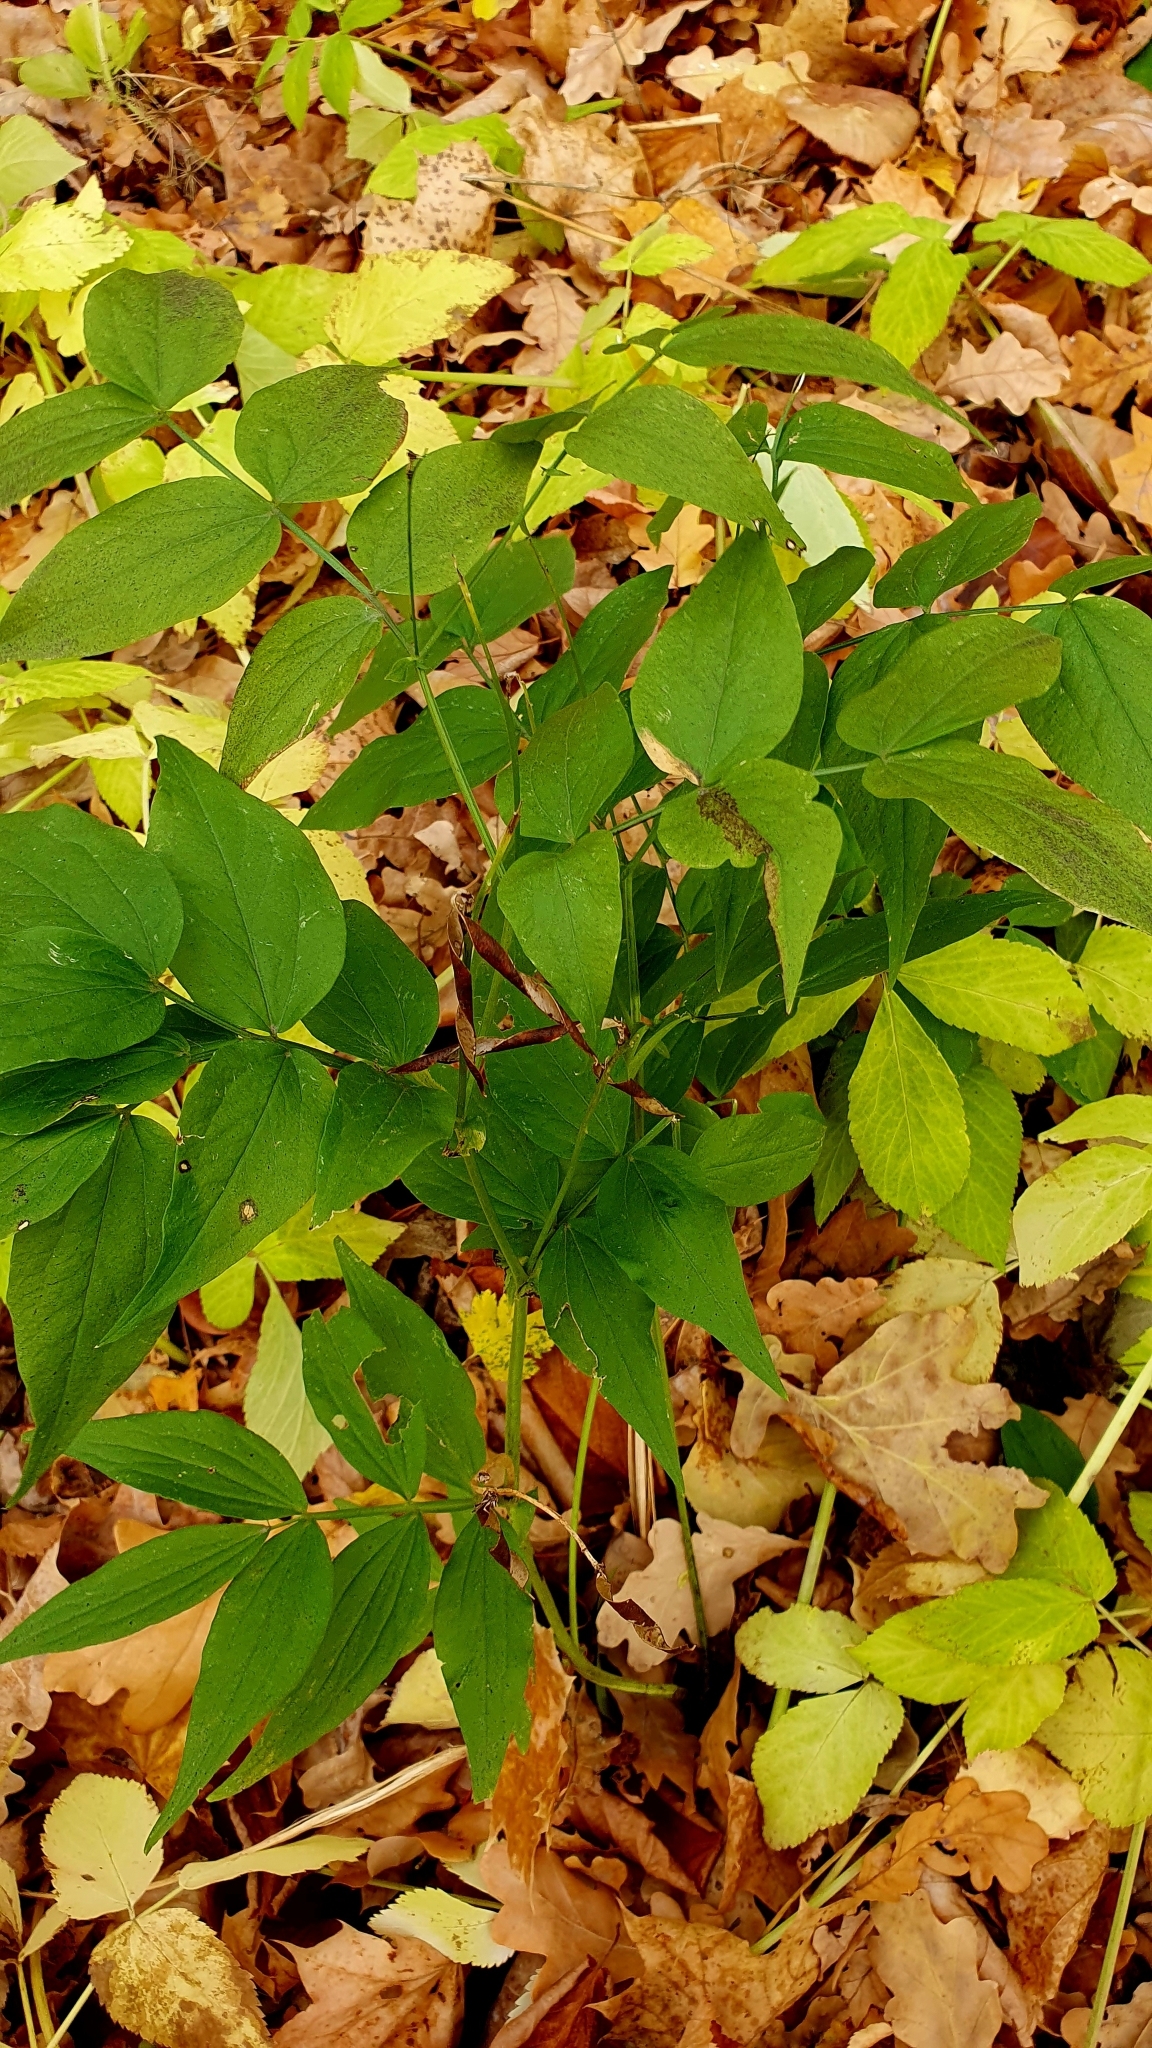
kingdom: Plantae
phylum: Tracheophyta
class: Magnoliopsida
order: Fabales
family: Fabaceae
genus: Lathyrus
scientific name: Lathyrus vernus
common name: Spring pea
